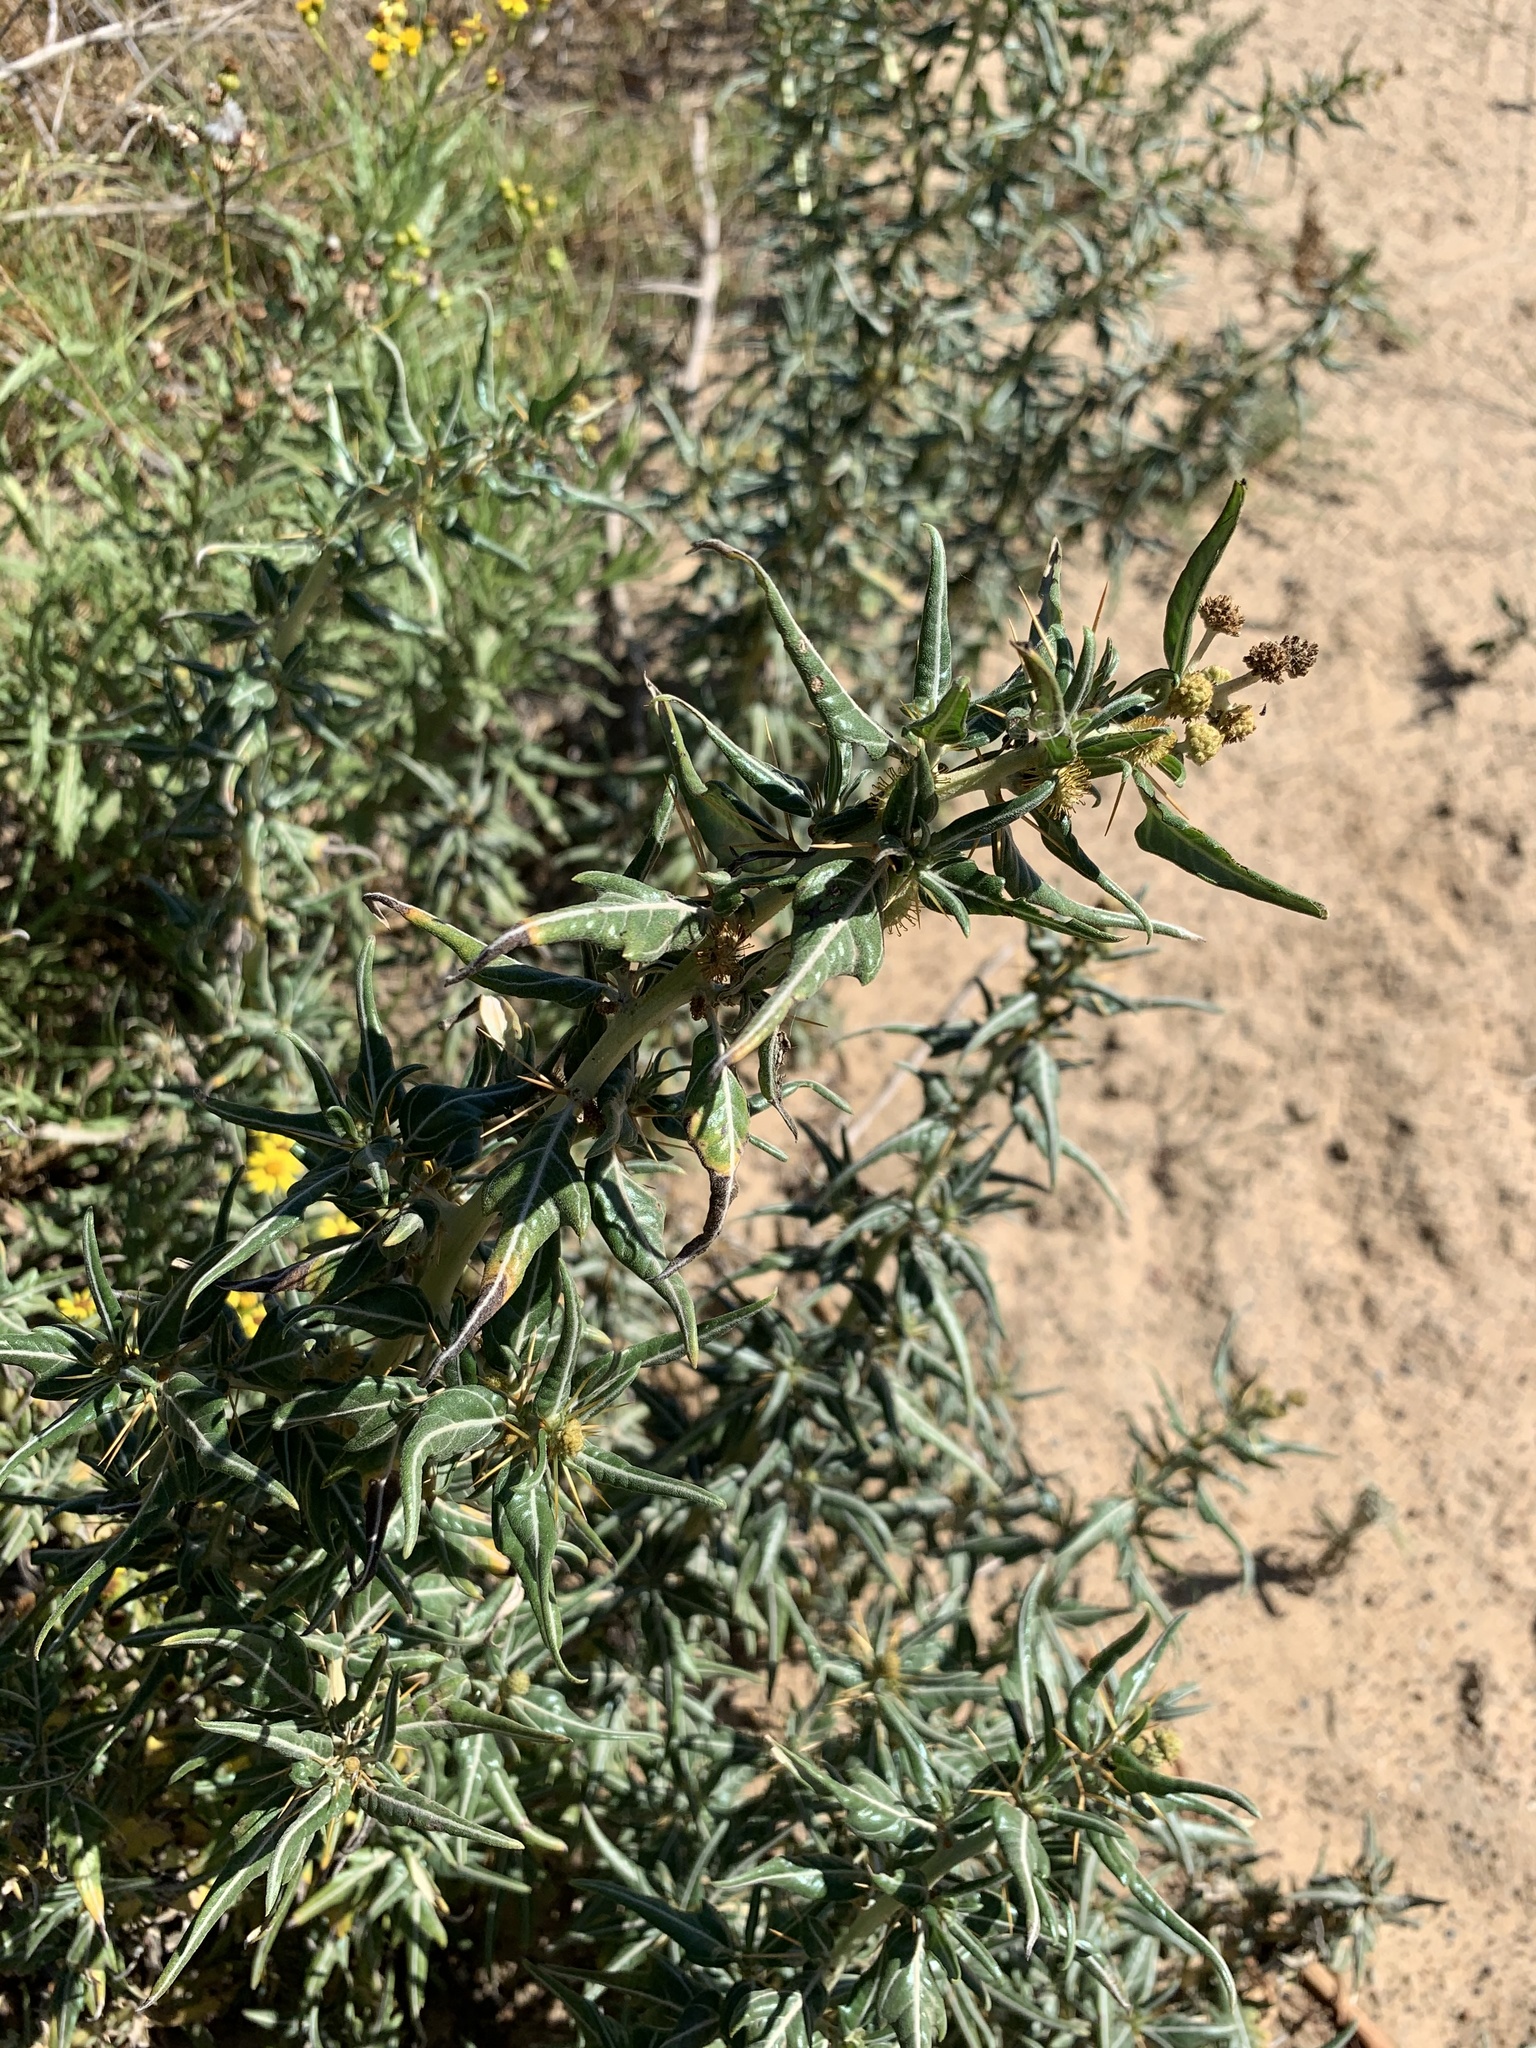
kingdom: Plantae
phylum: Tracheophyta
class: Magnoliopsida
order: Asterales
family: Asteraceae
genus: Xanthium
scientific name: Xanthium spinosum
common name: Spiny cocklebur
